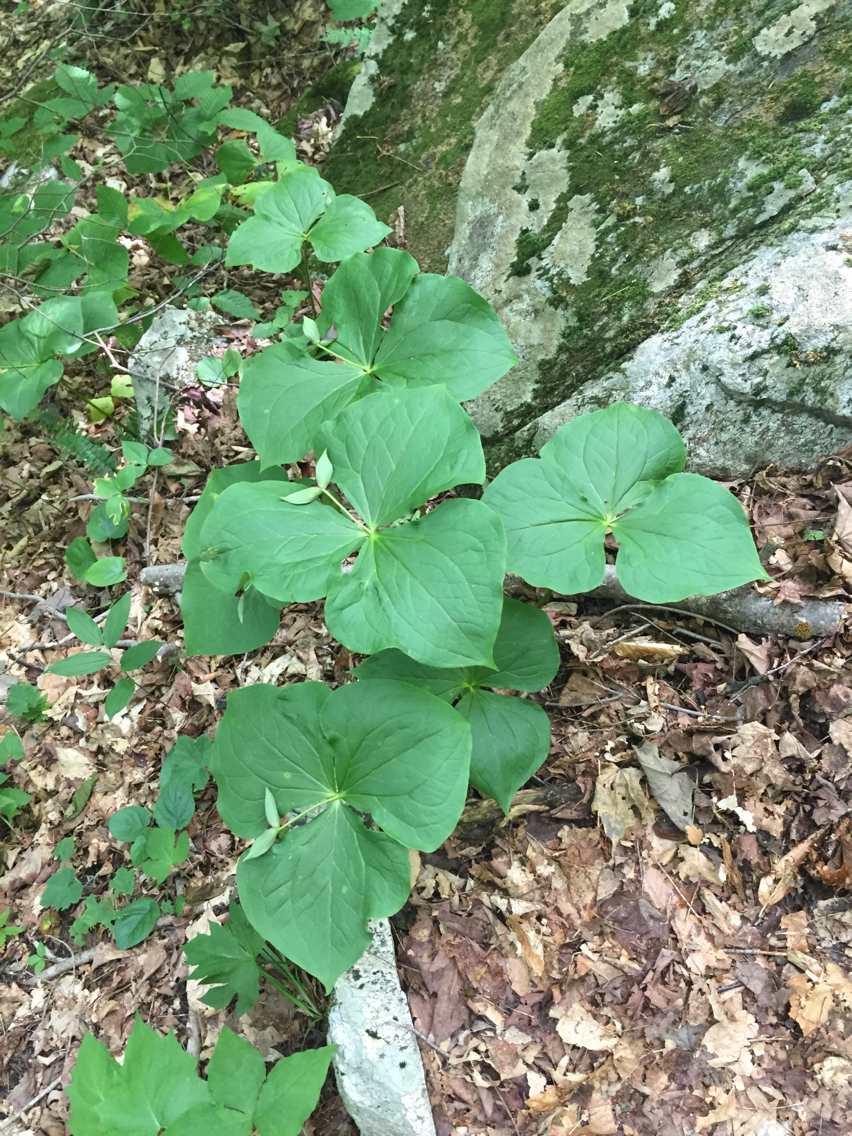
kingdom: Plantae
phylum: Tracheophyta
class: Liliopsida
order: Liliales
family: Melanthiaceae
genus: Trillium
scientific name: Trillium erectum
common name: Purple trillium
